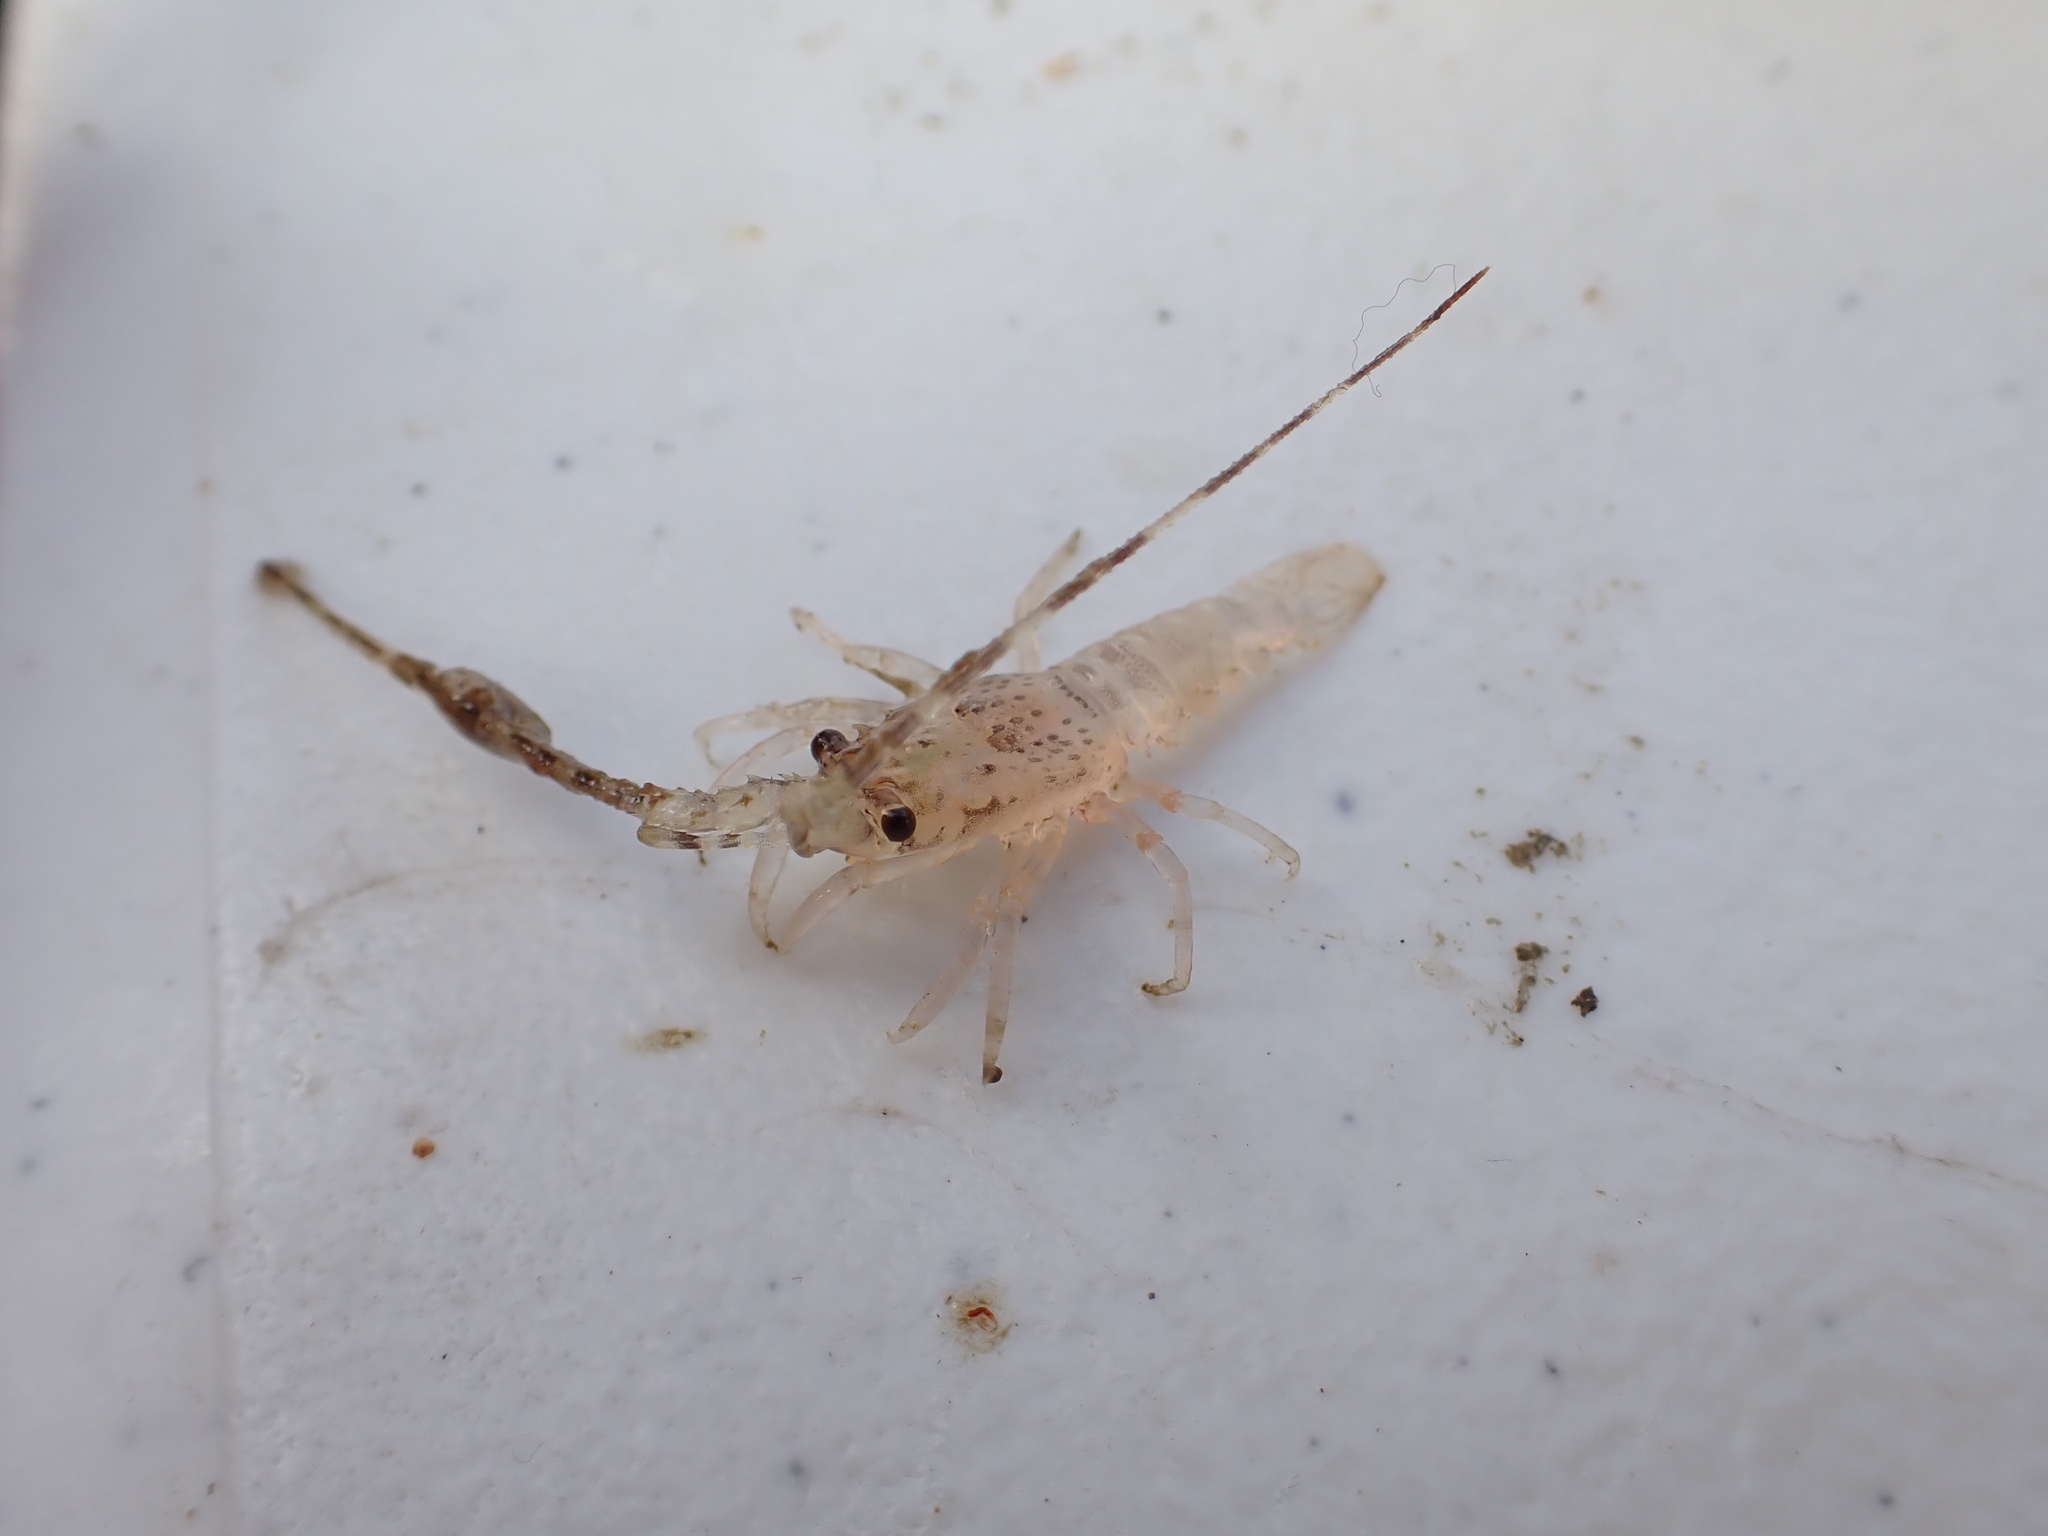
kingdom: Animalia
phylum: Arthropoda
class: Malacostraca
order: Decapoda
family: Palinuridae
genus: Jasus
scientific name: Jasus edwardsii
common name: Red rock lobster
